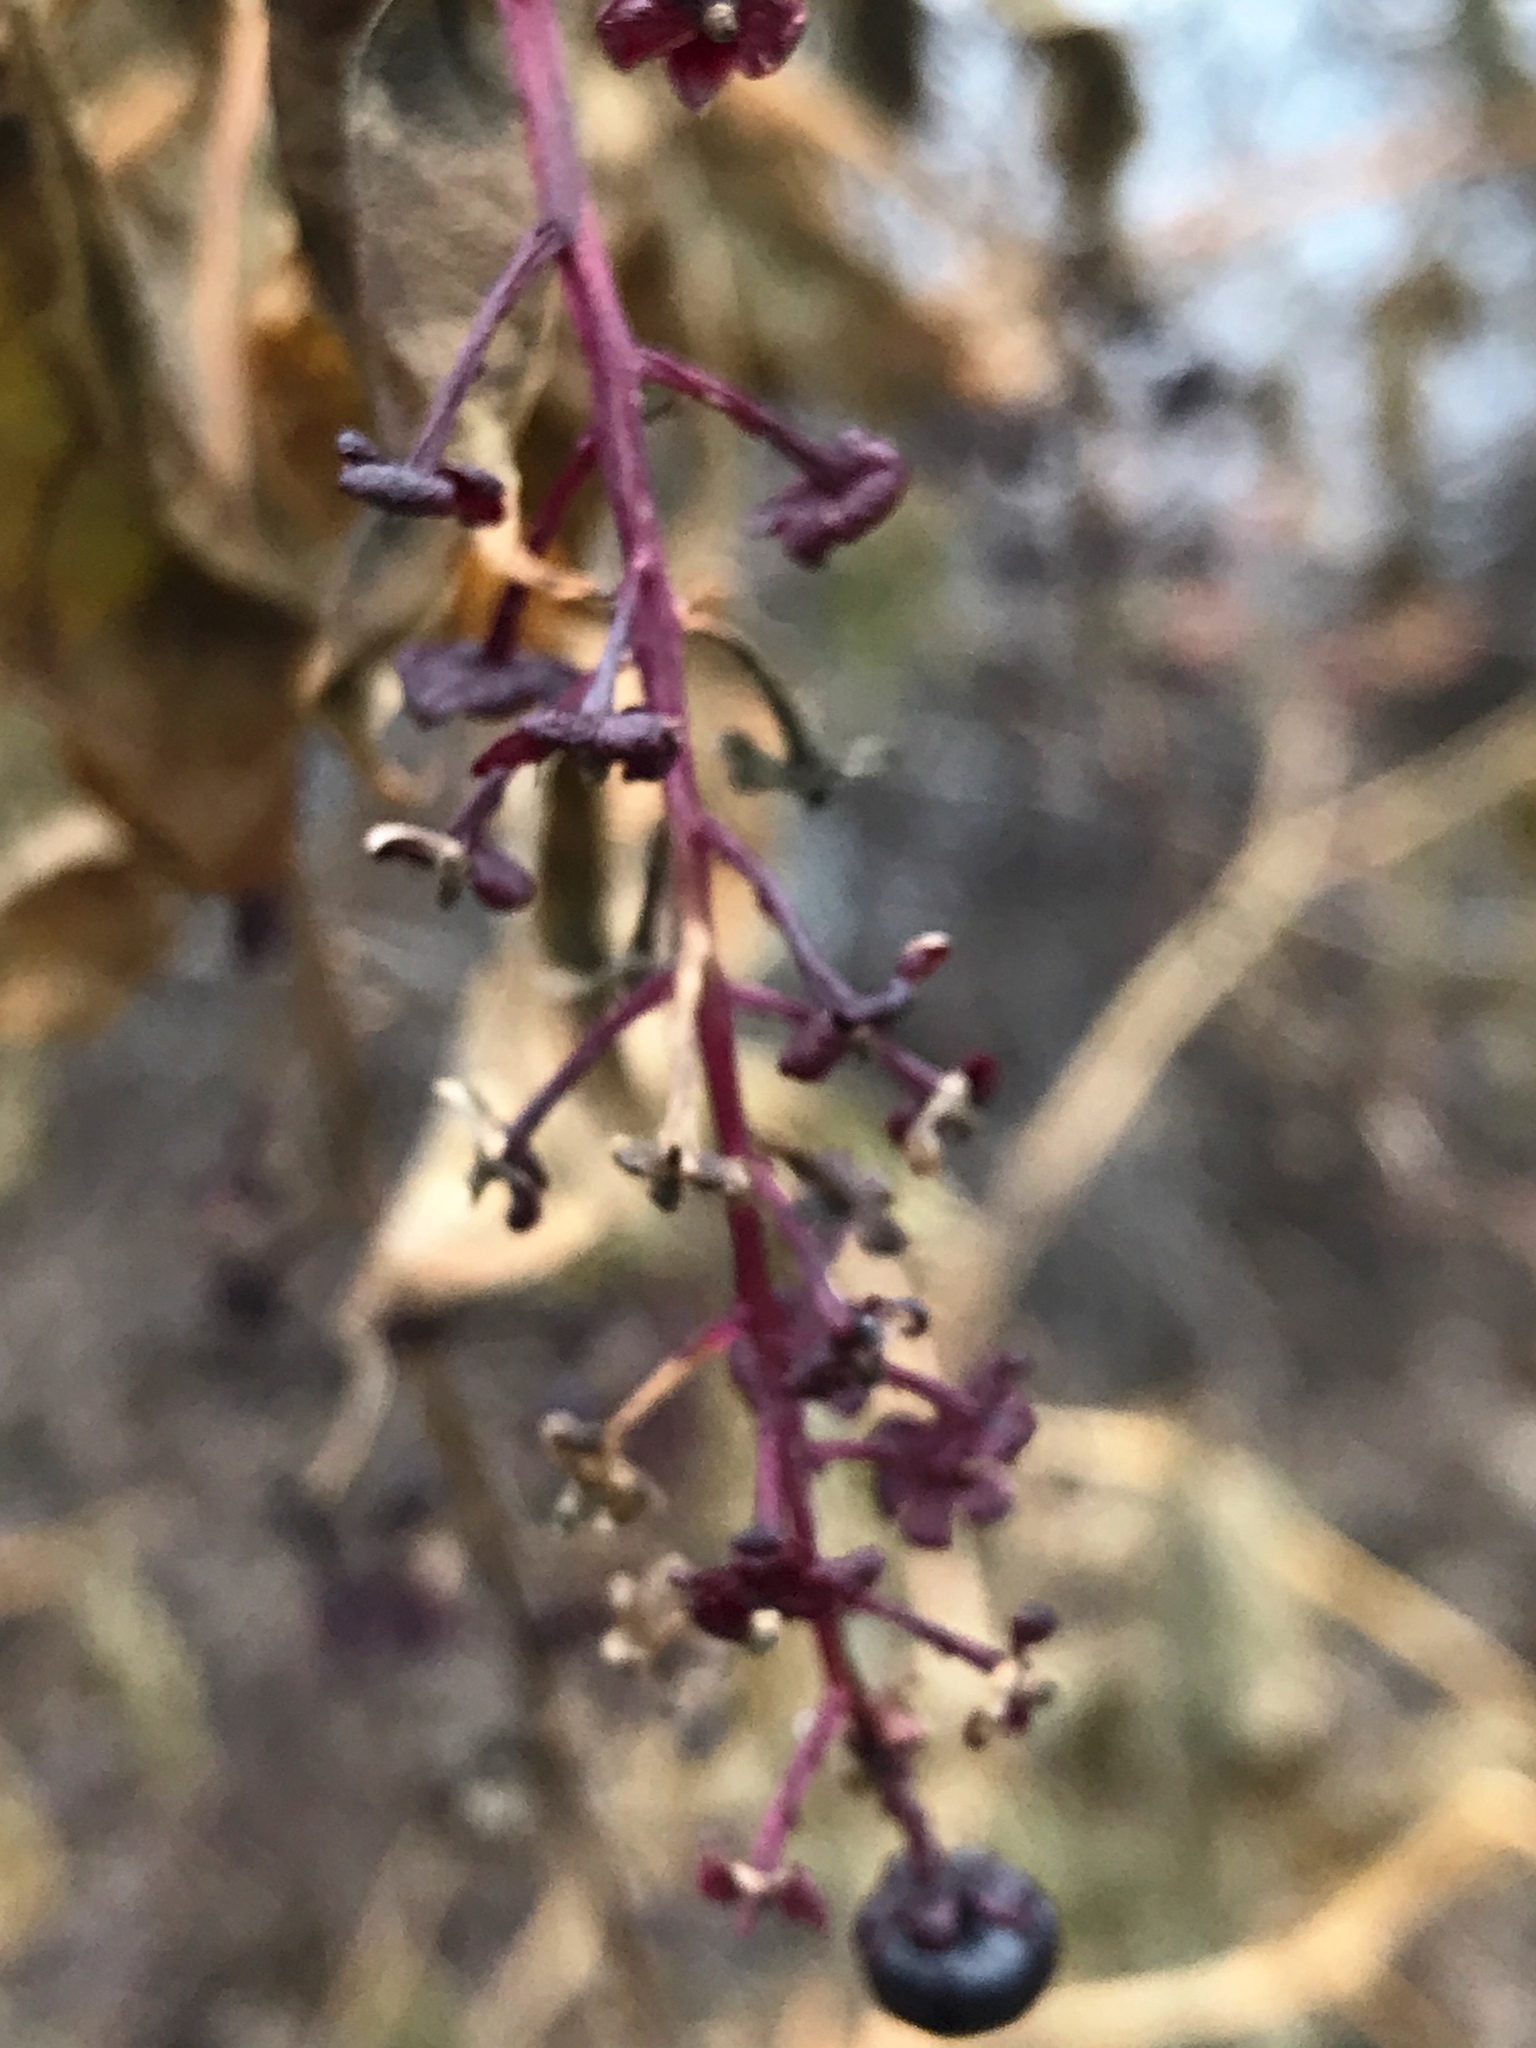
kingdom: Plantae
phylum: Tracheophyta
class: Magnoliopsida
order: Caryophyllales
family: Phytolaccaceae
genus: Phytolacca
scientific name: Phytolacca americana
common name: American pokeweed
